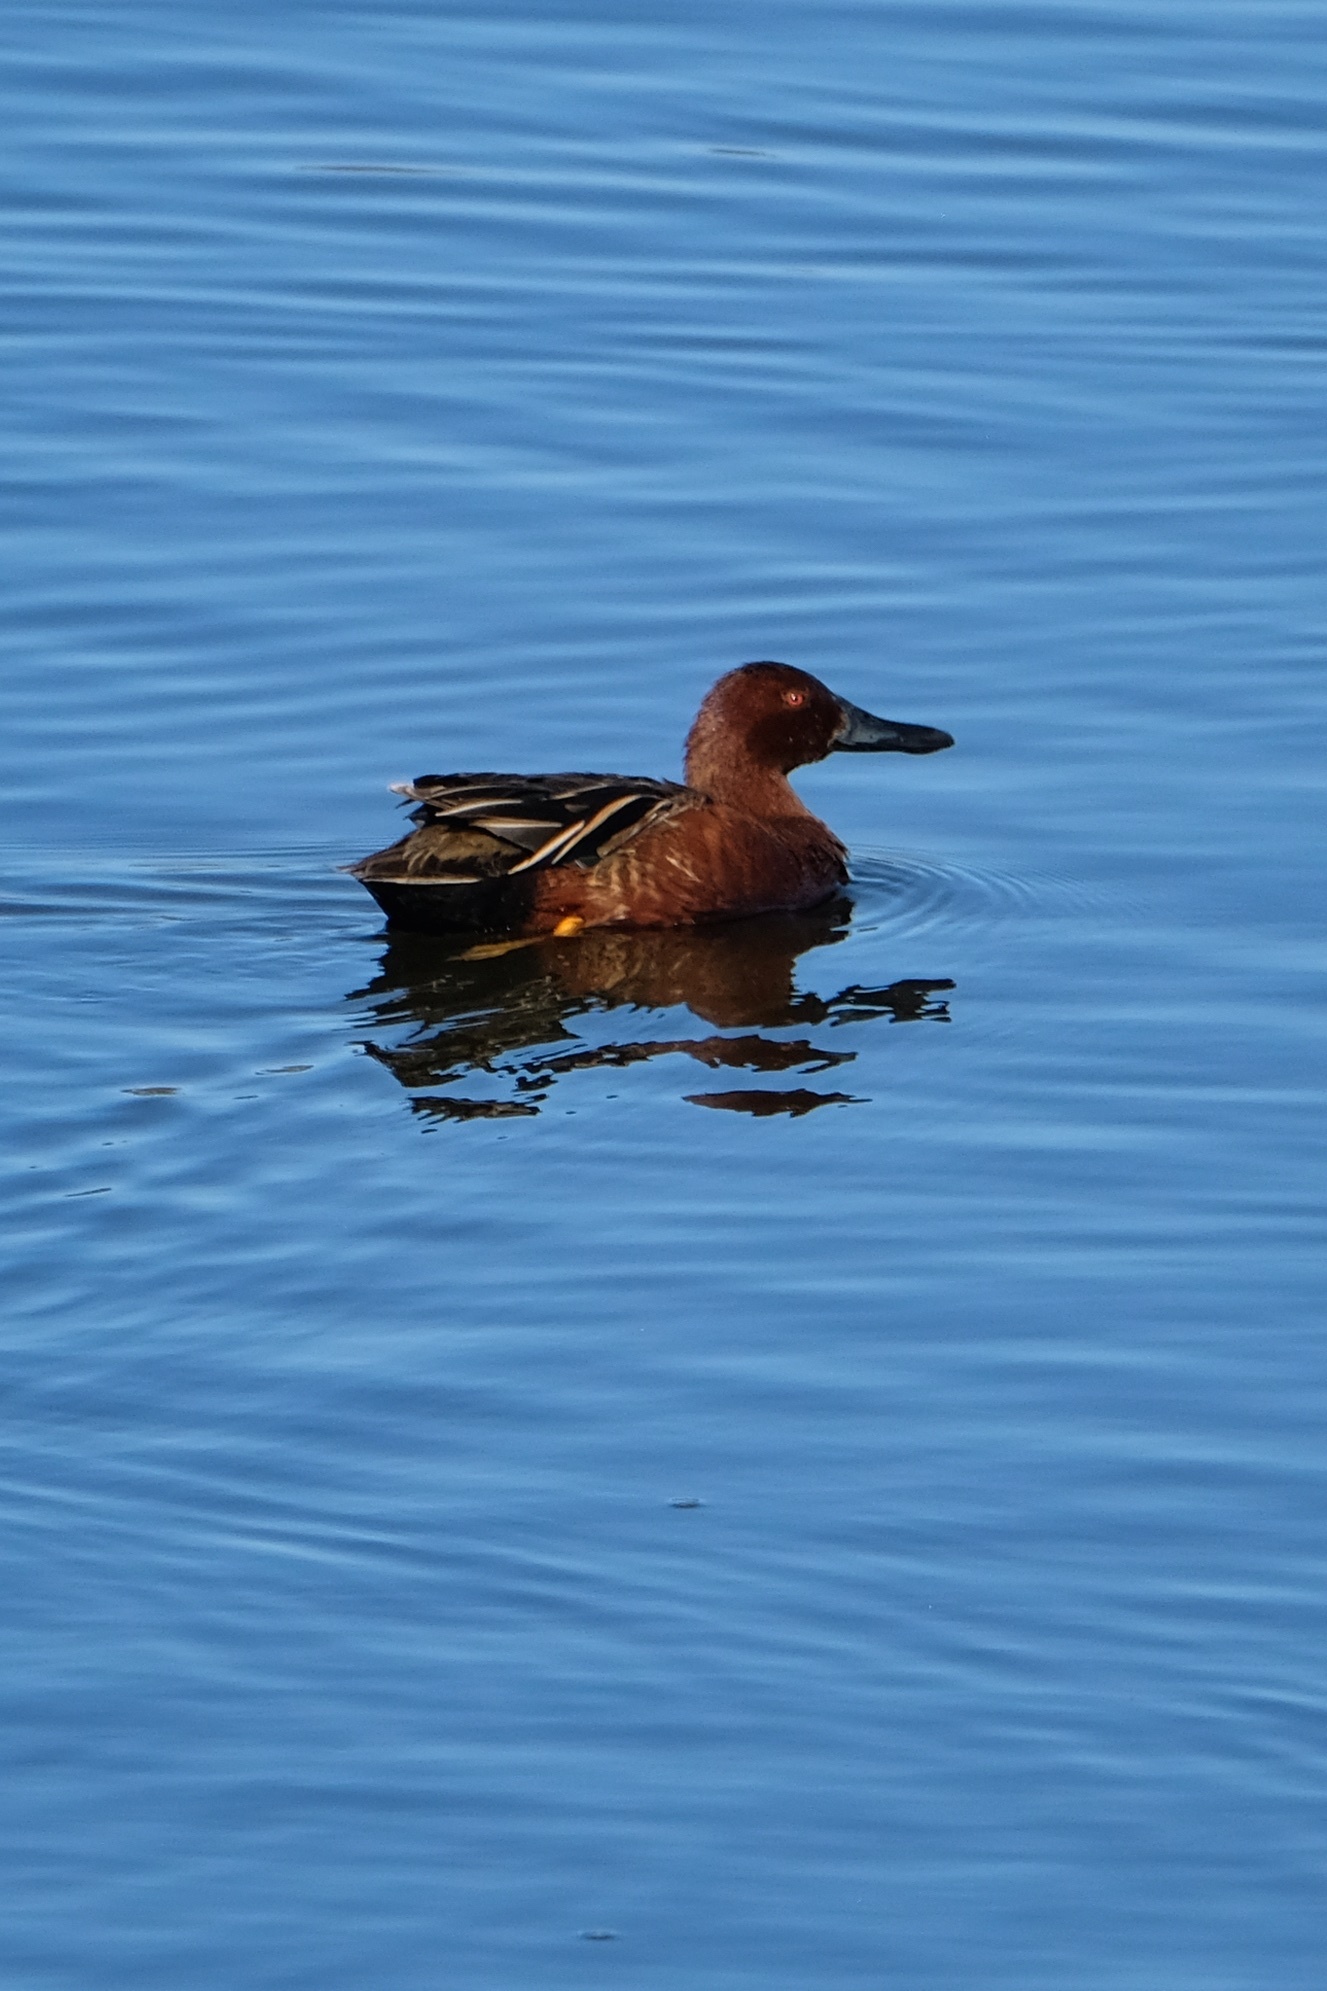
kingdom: Animalia
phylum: Chordata
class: Aves
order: Anseriformes
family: Anatidae
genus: Spatula
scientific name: Spatula cyanoptera
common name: Cinnamon teal
